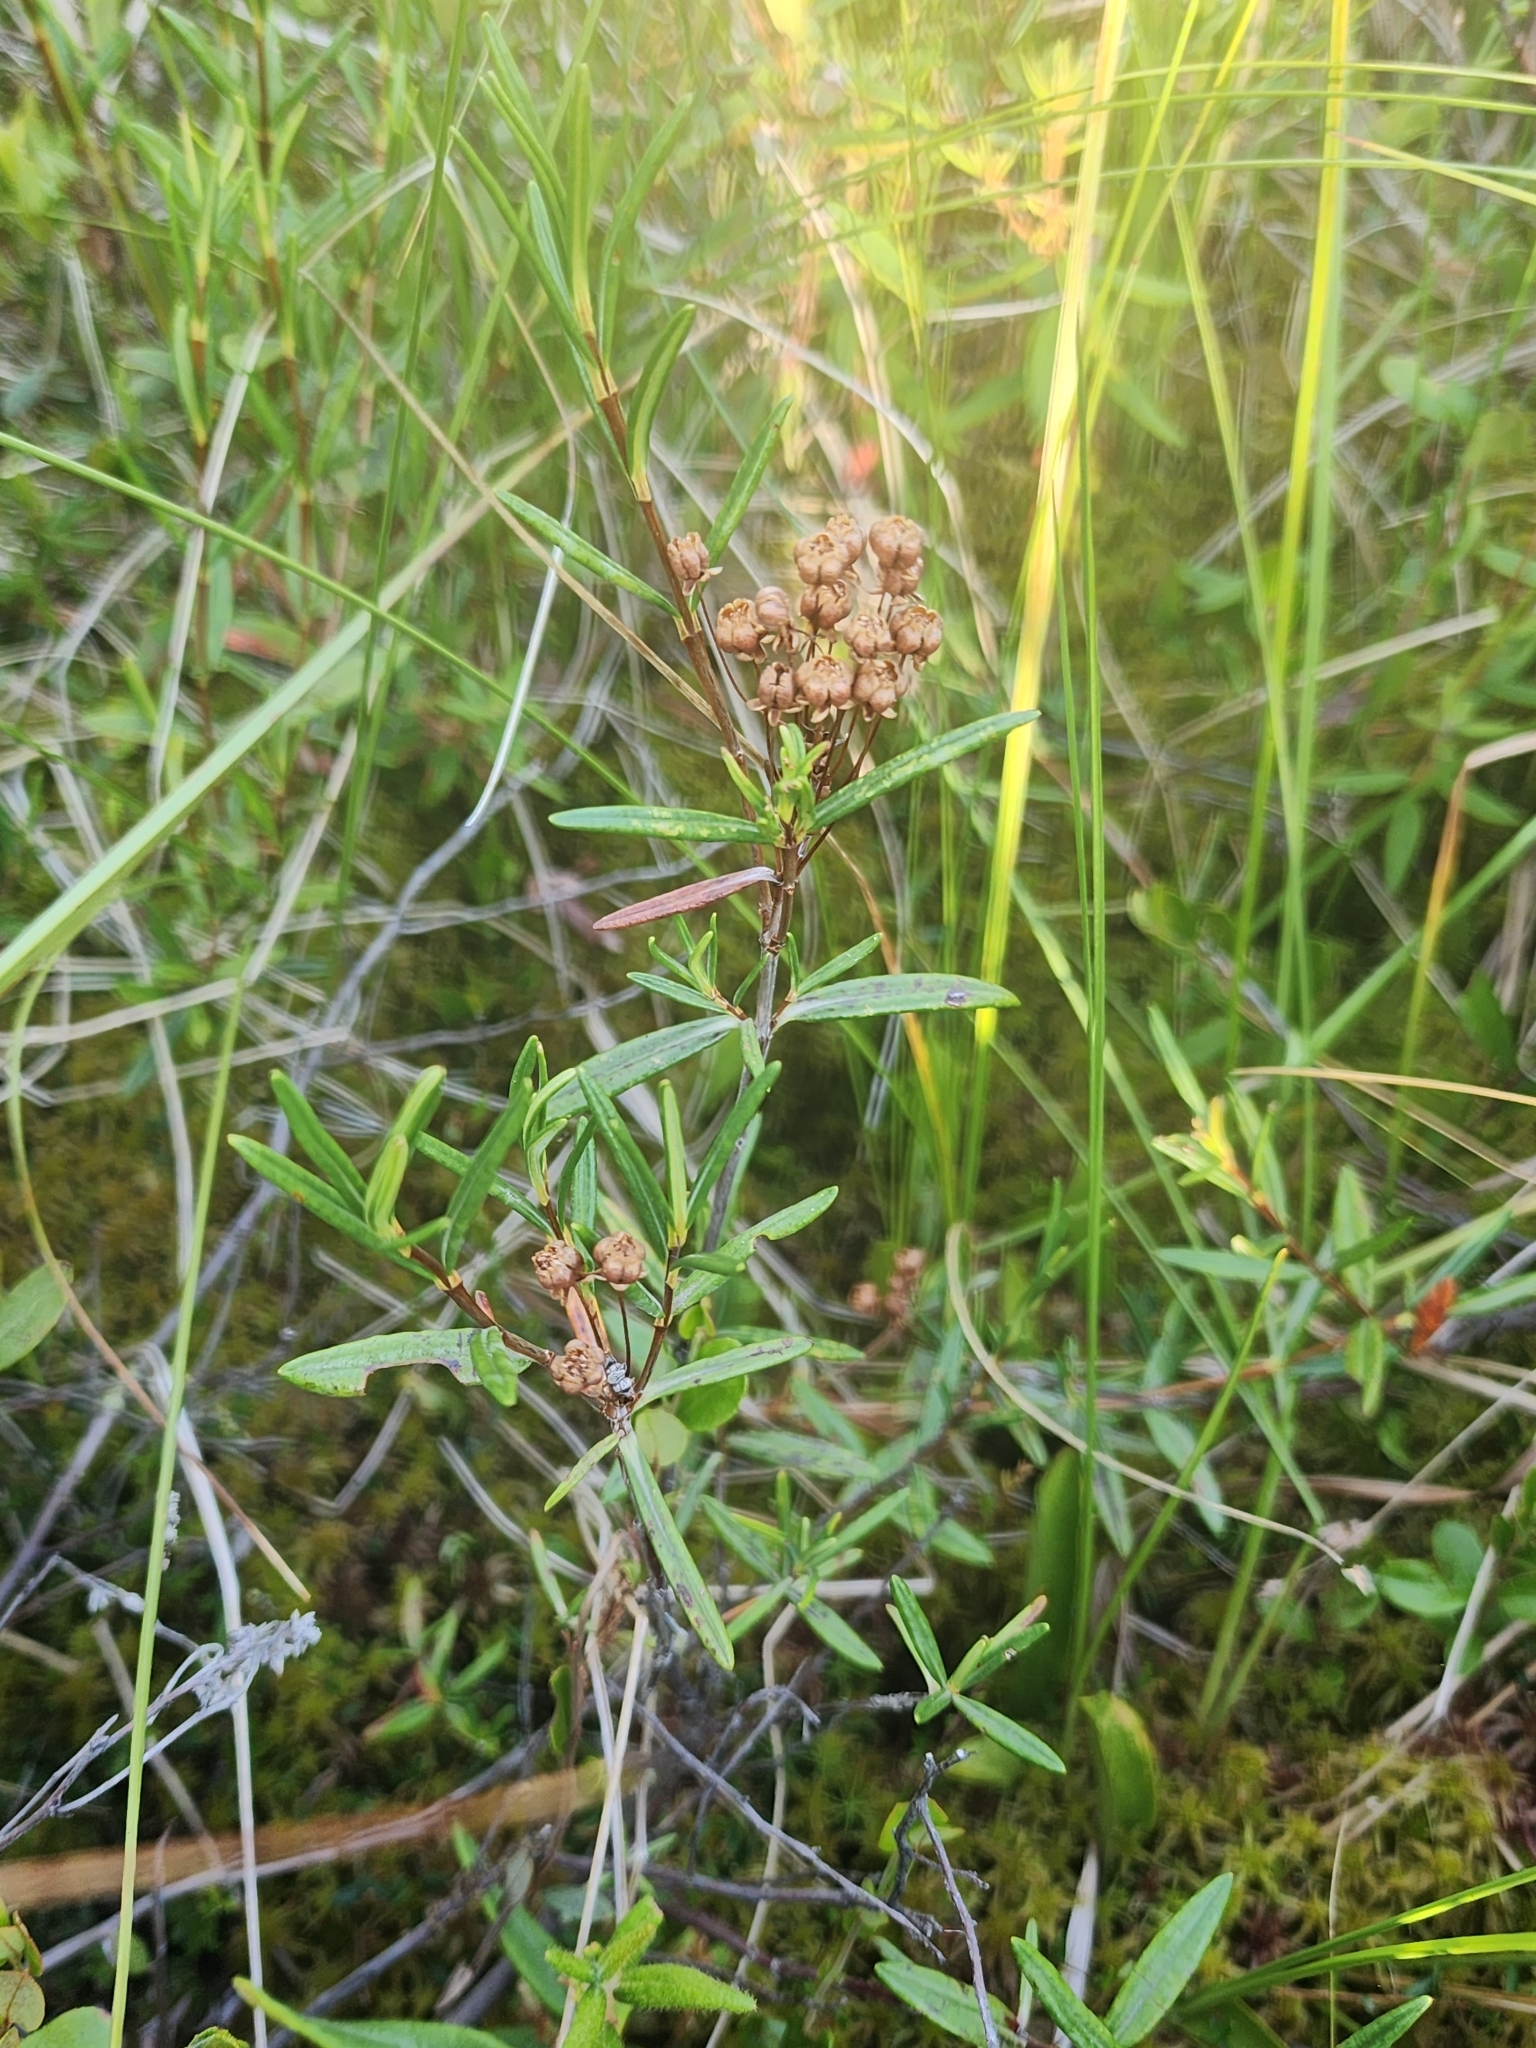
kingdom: Plantae
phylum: Tracheophyta
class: Magnoliopsida
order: Ericales
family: Ericaceae
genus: Kalmia
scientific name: Kalmia polifolia
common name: Bog-laurel
